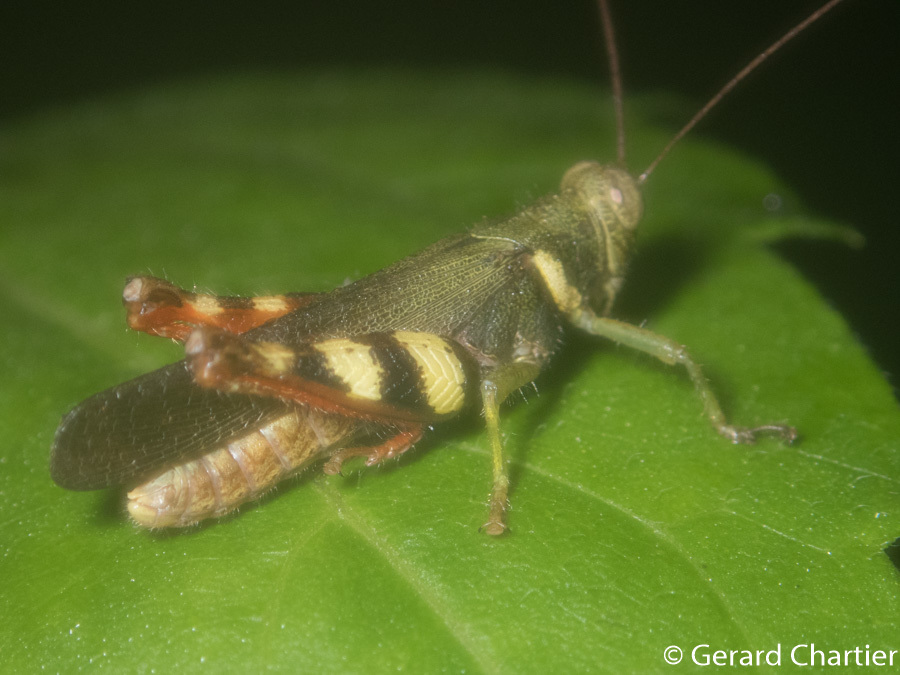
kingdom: Animalia
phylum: Arthropoda
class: Insecta
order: Orthoptera
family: Acrididae
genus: Apalacris
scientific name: Apalacris varicornis
